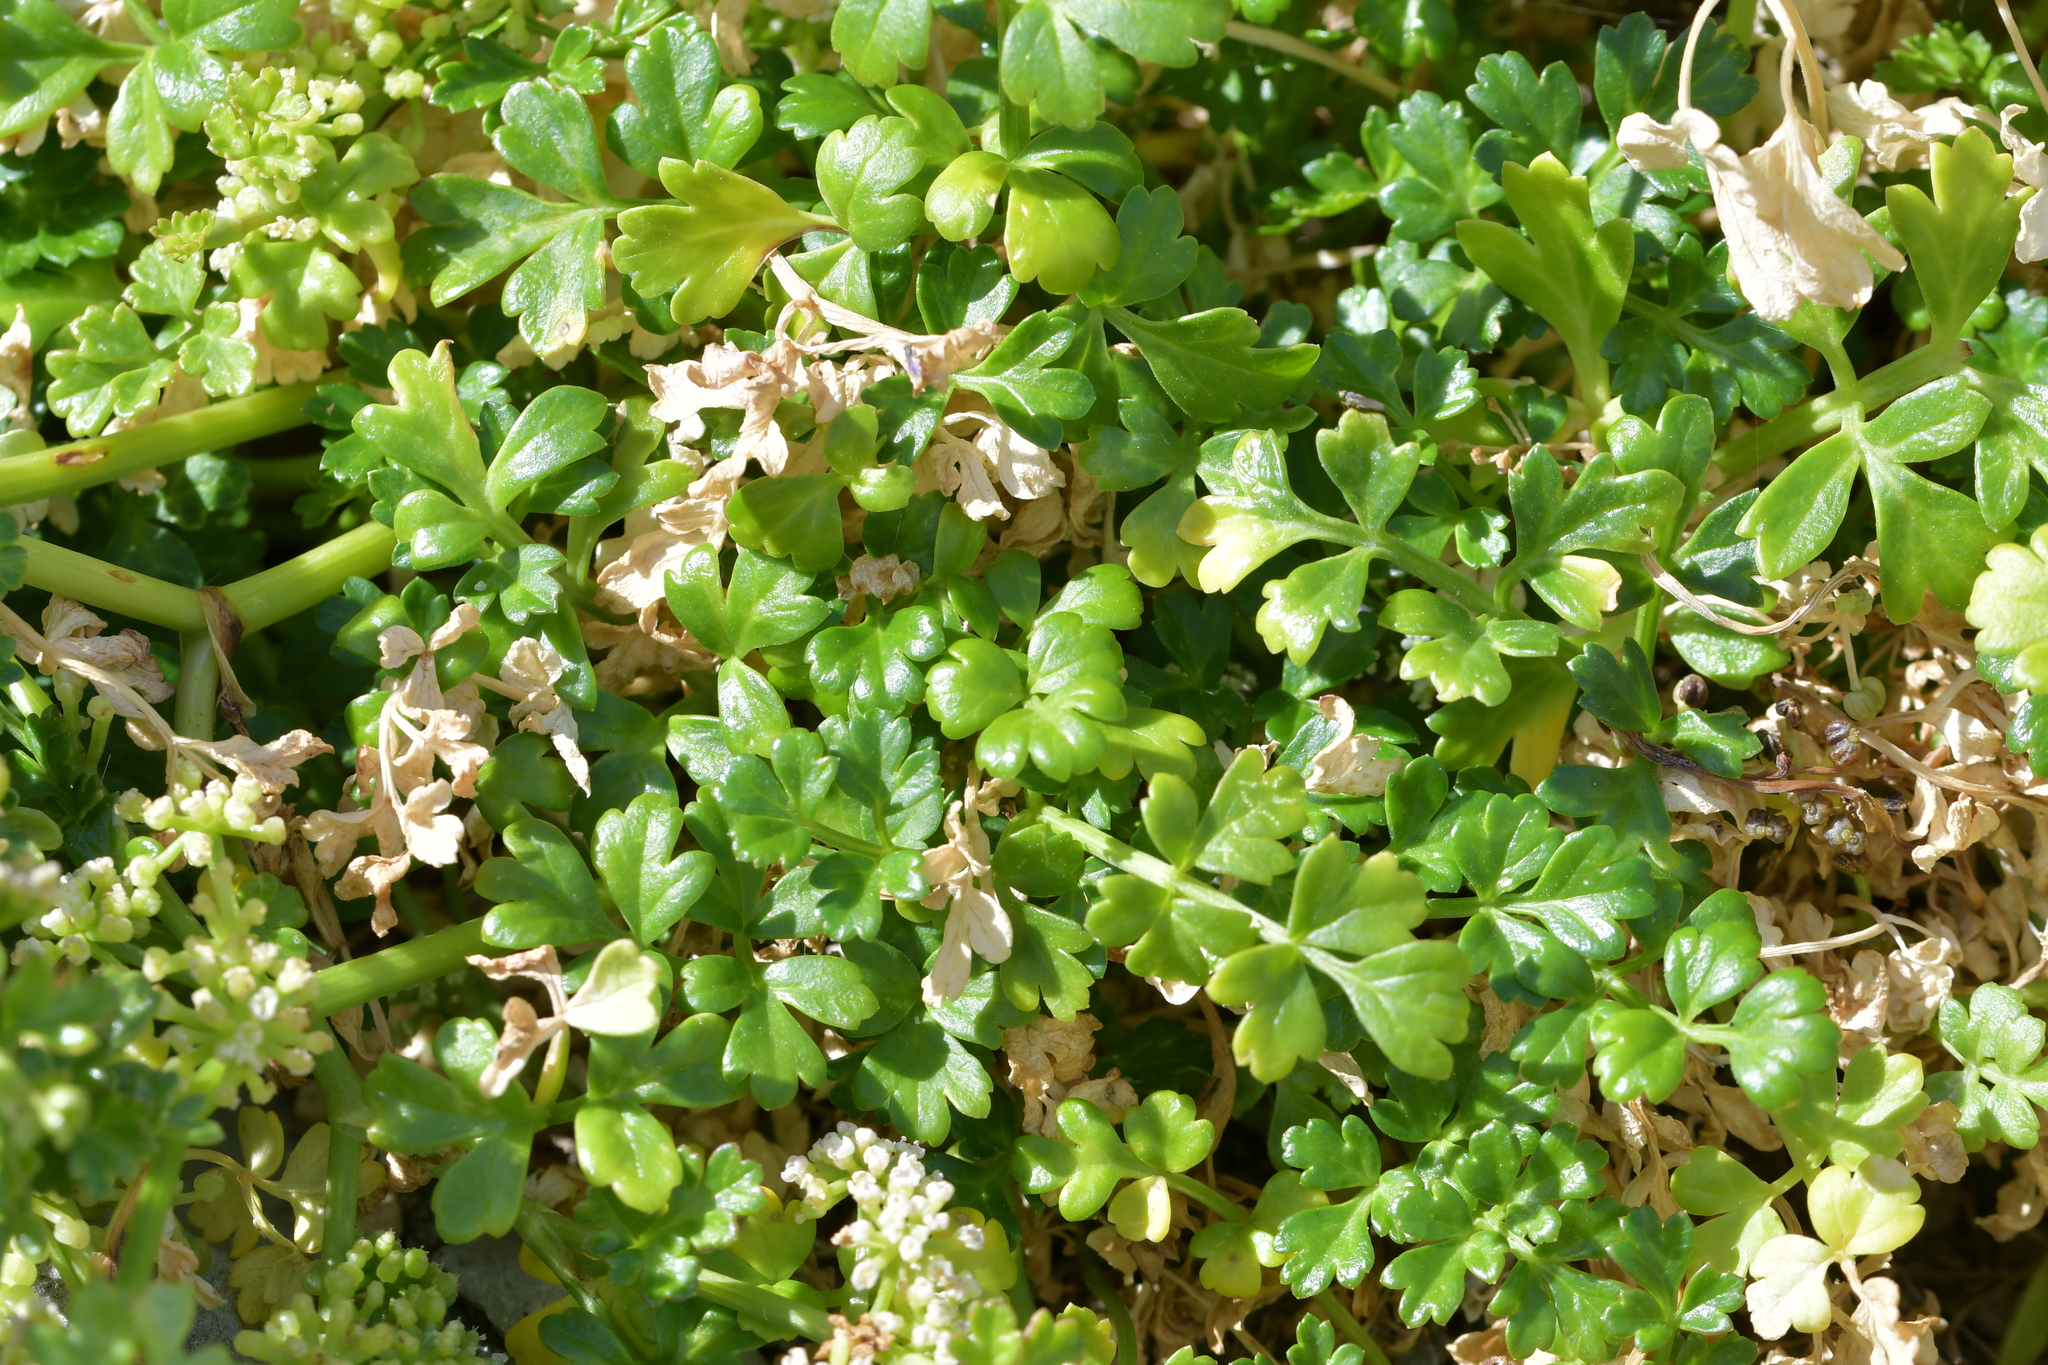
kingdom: Plantae
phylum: Tracheophyta
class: Magnoliopsida
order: Apiales
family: Apiaceae
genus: Apium
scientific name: Apium prostratum
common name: Prostrate marshwort
